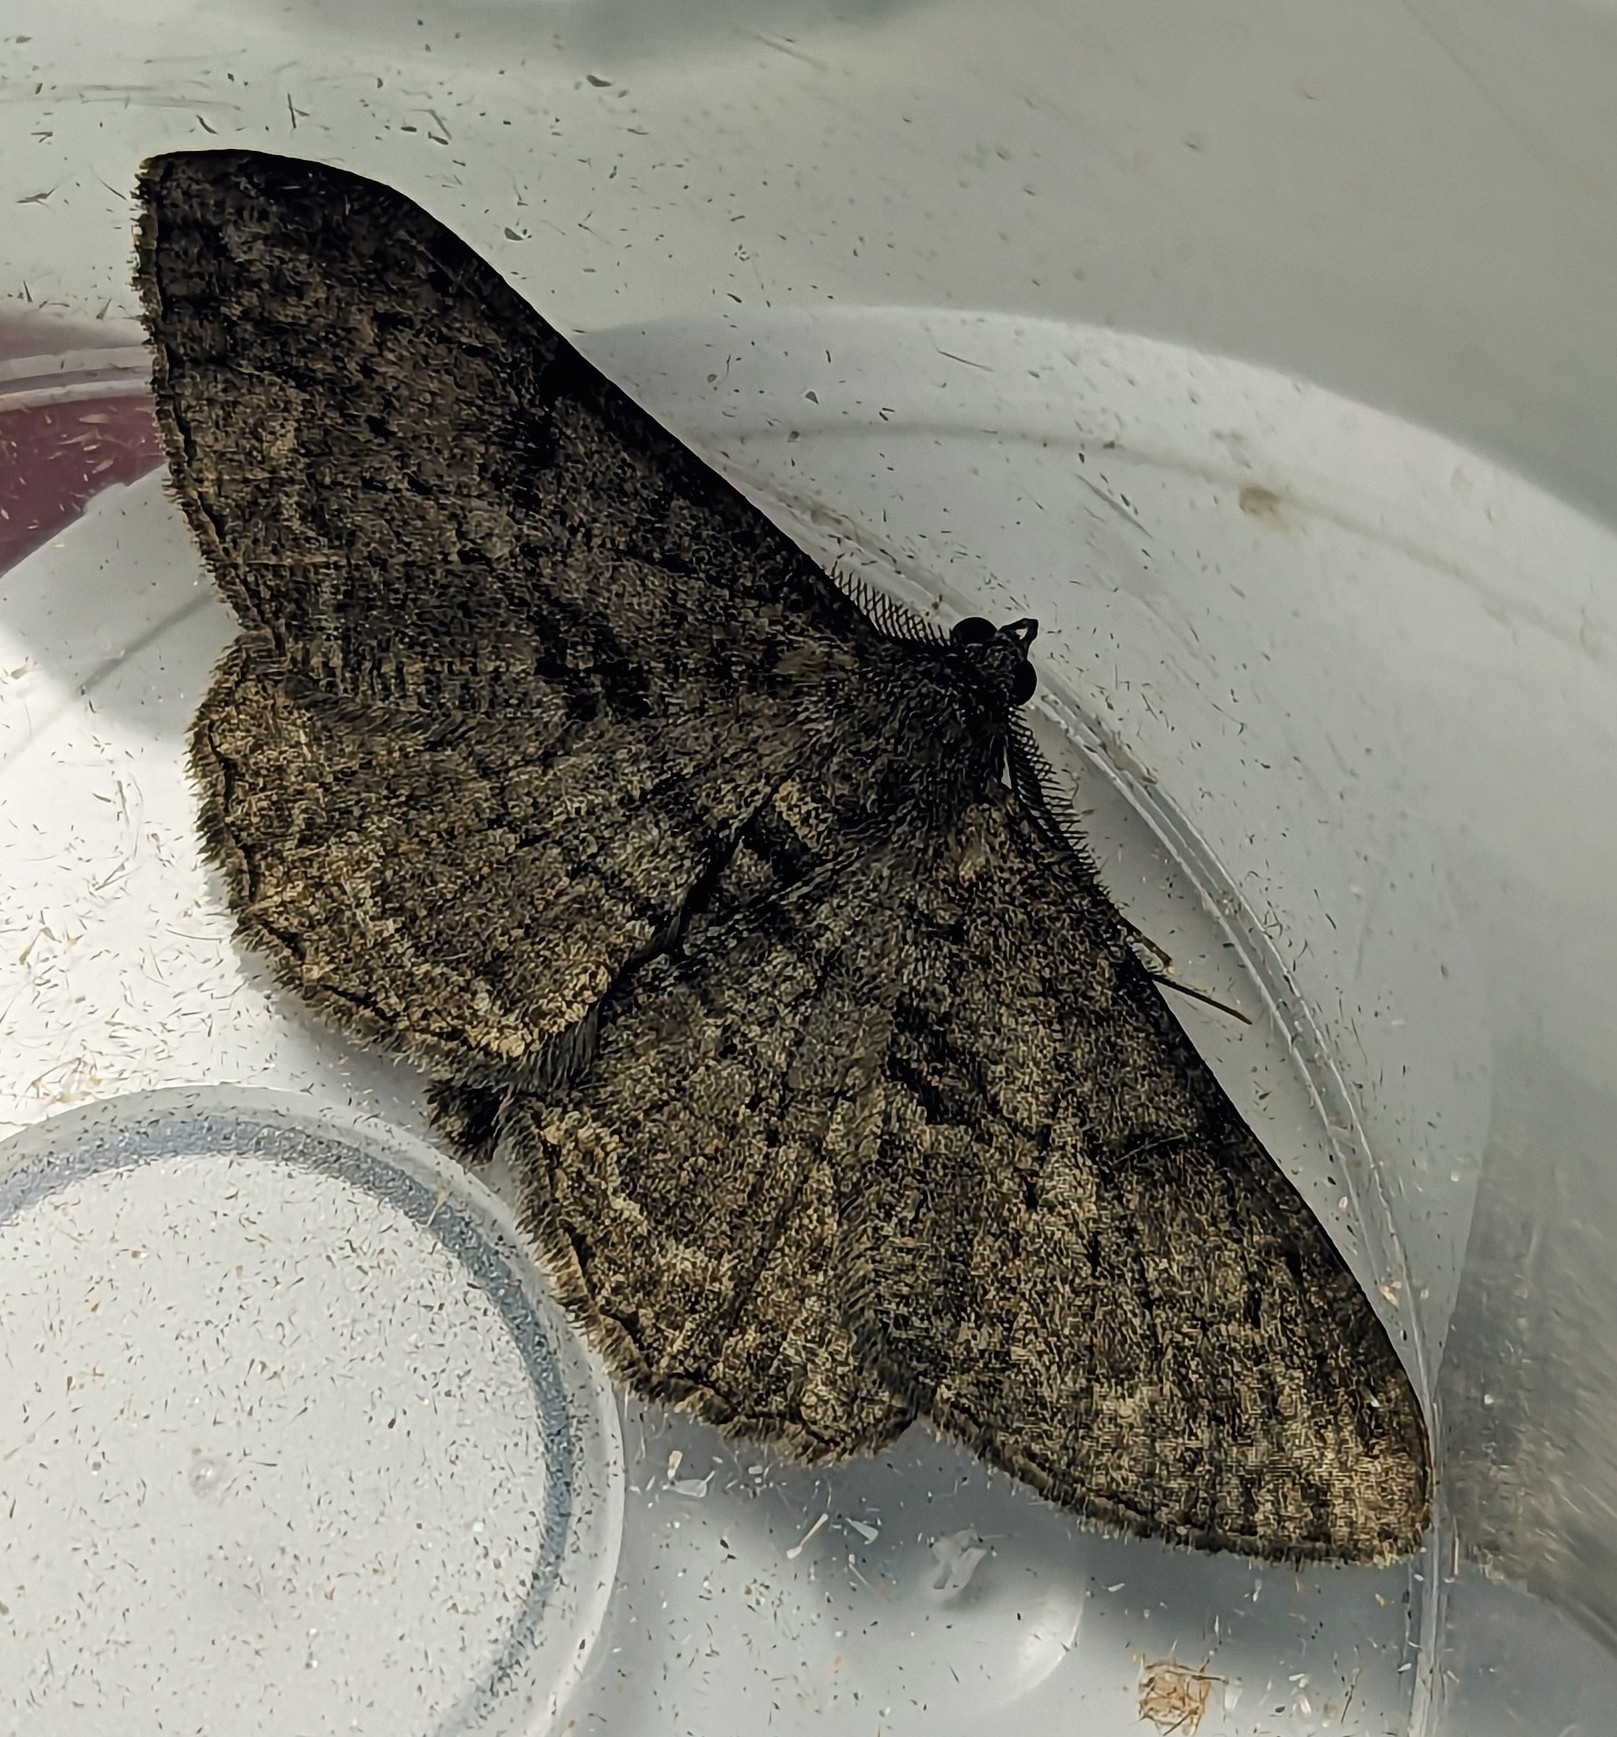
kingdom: Animalia
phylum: Arthropoda
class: Insecta
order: Lepidoptera
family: Geometridae
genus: Peribatodes
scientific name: Peribatodes rhomboidaria
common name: Willow beauty
